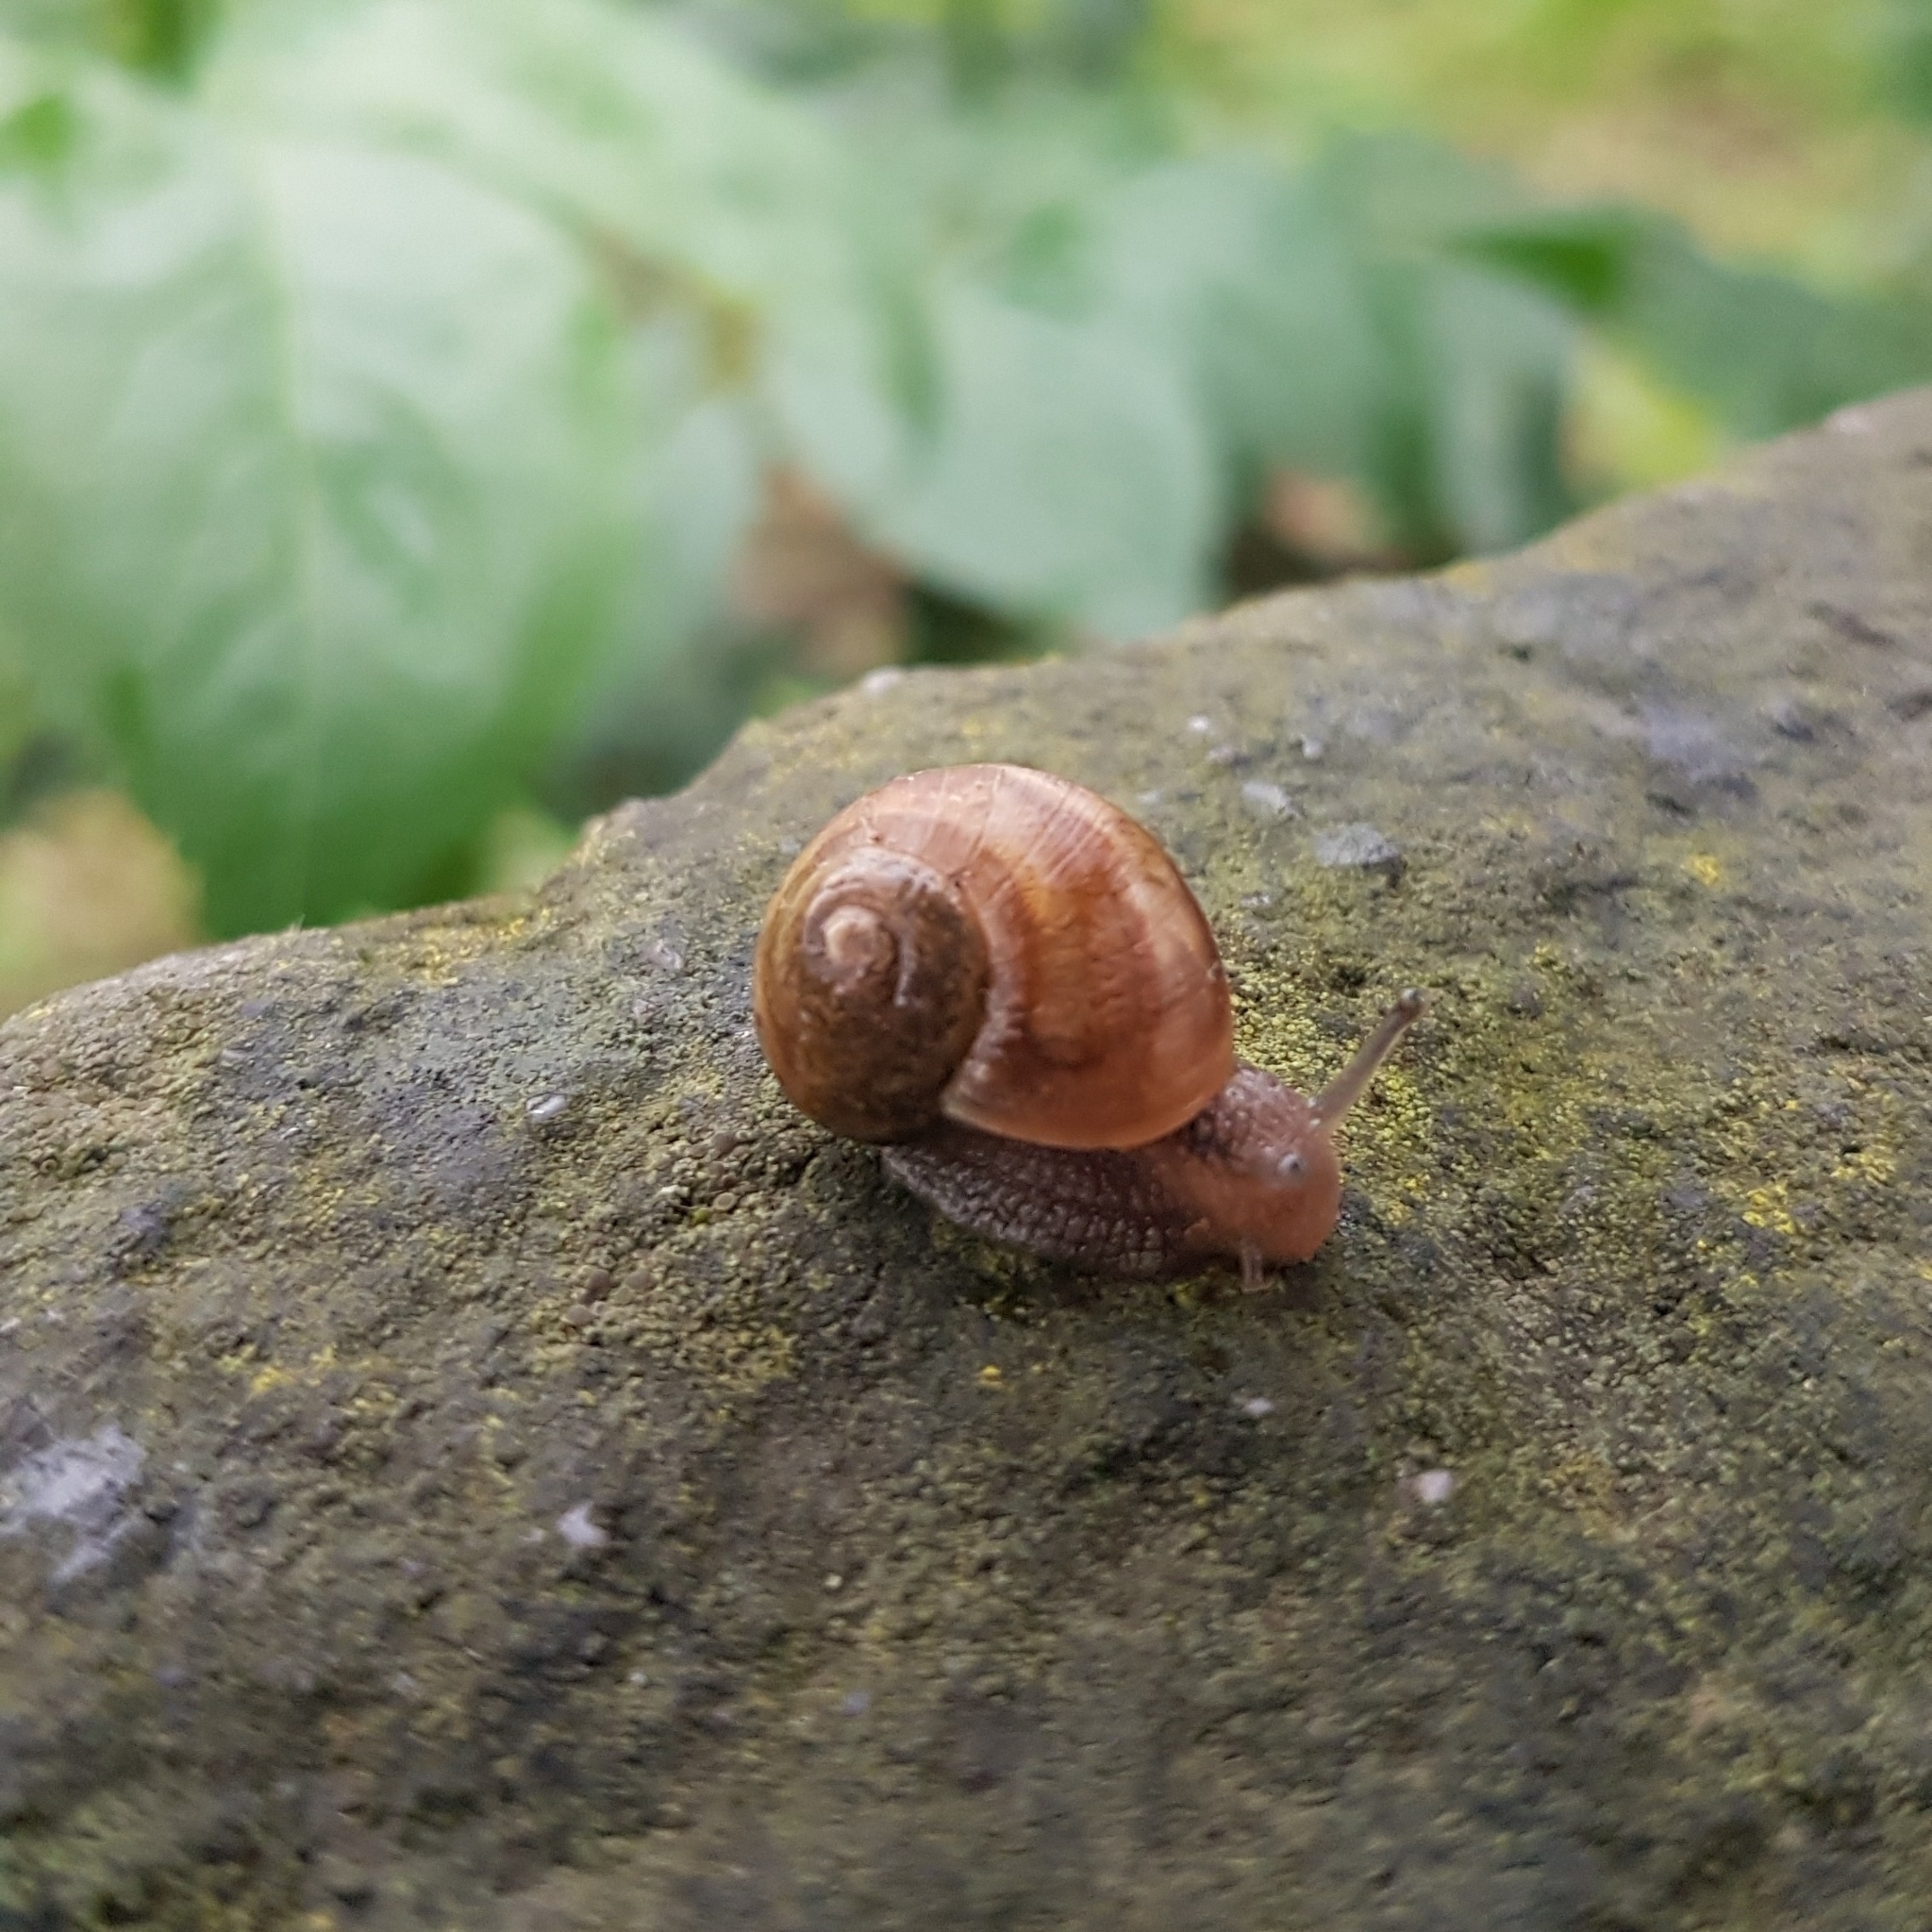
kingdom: Animalia
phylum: Mollusca
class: Gastropoda
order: Stylommatophora
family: Helicidae
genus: Helix
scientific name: Helix pomatia
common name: Roman snail
